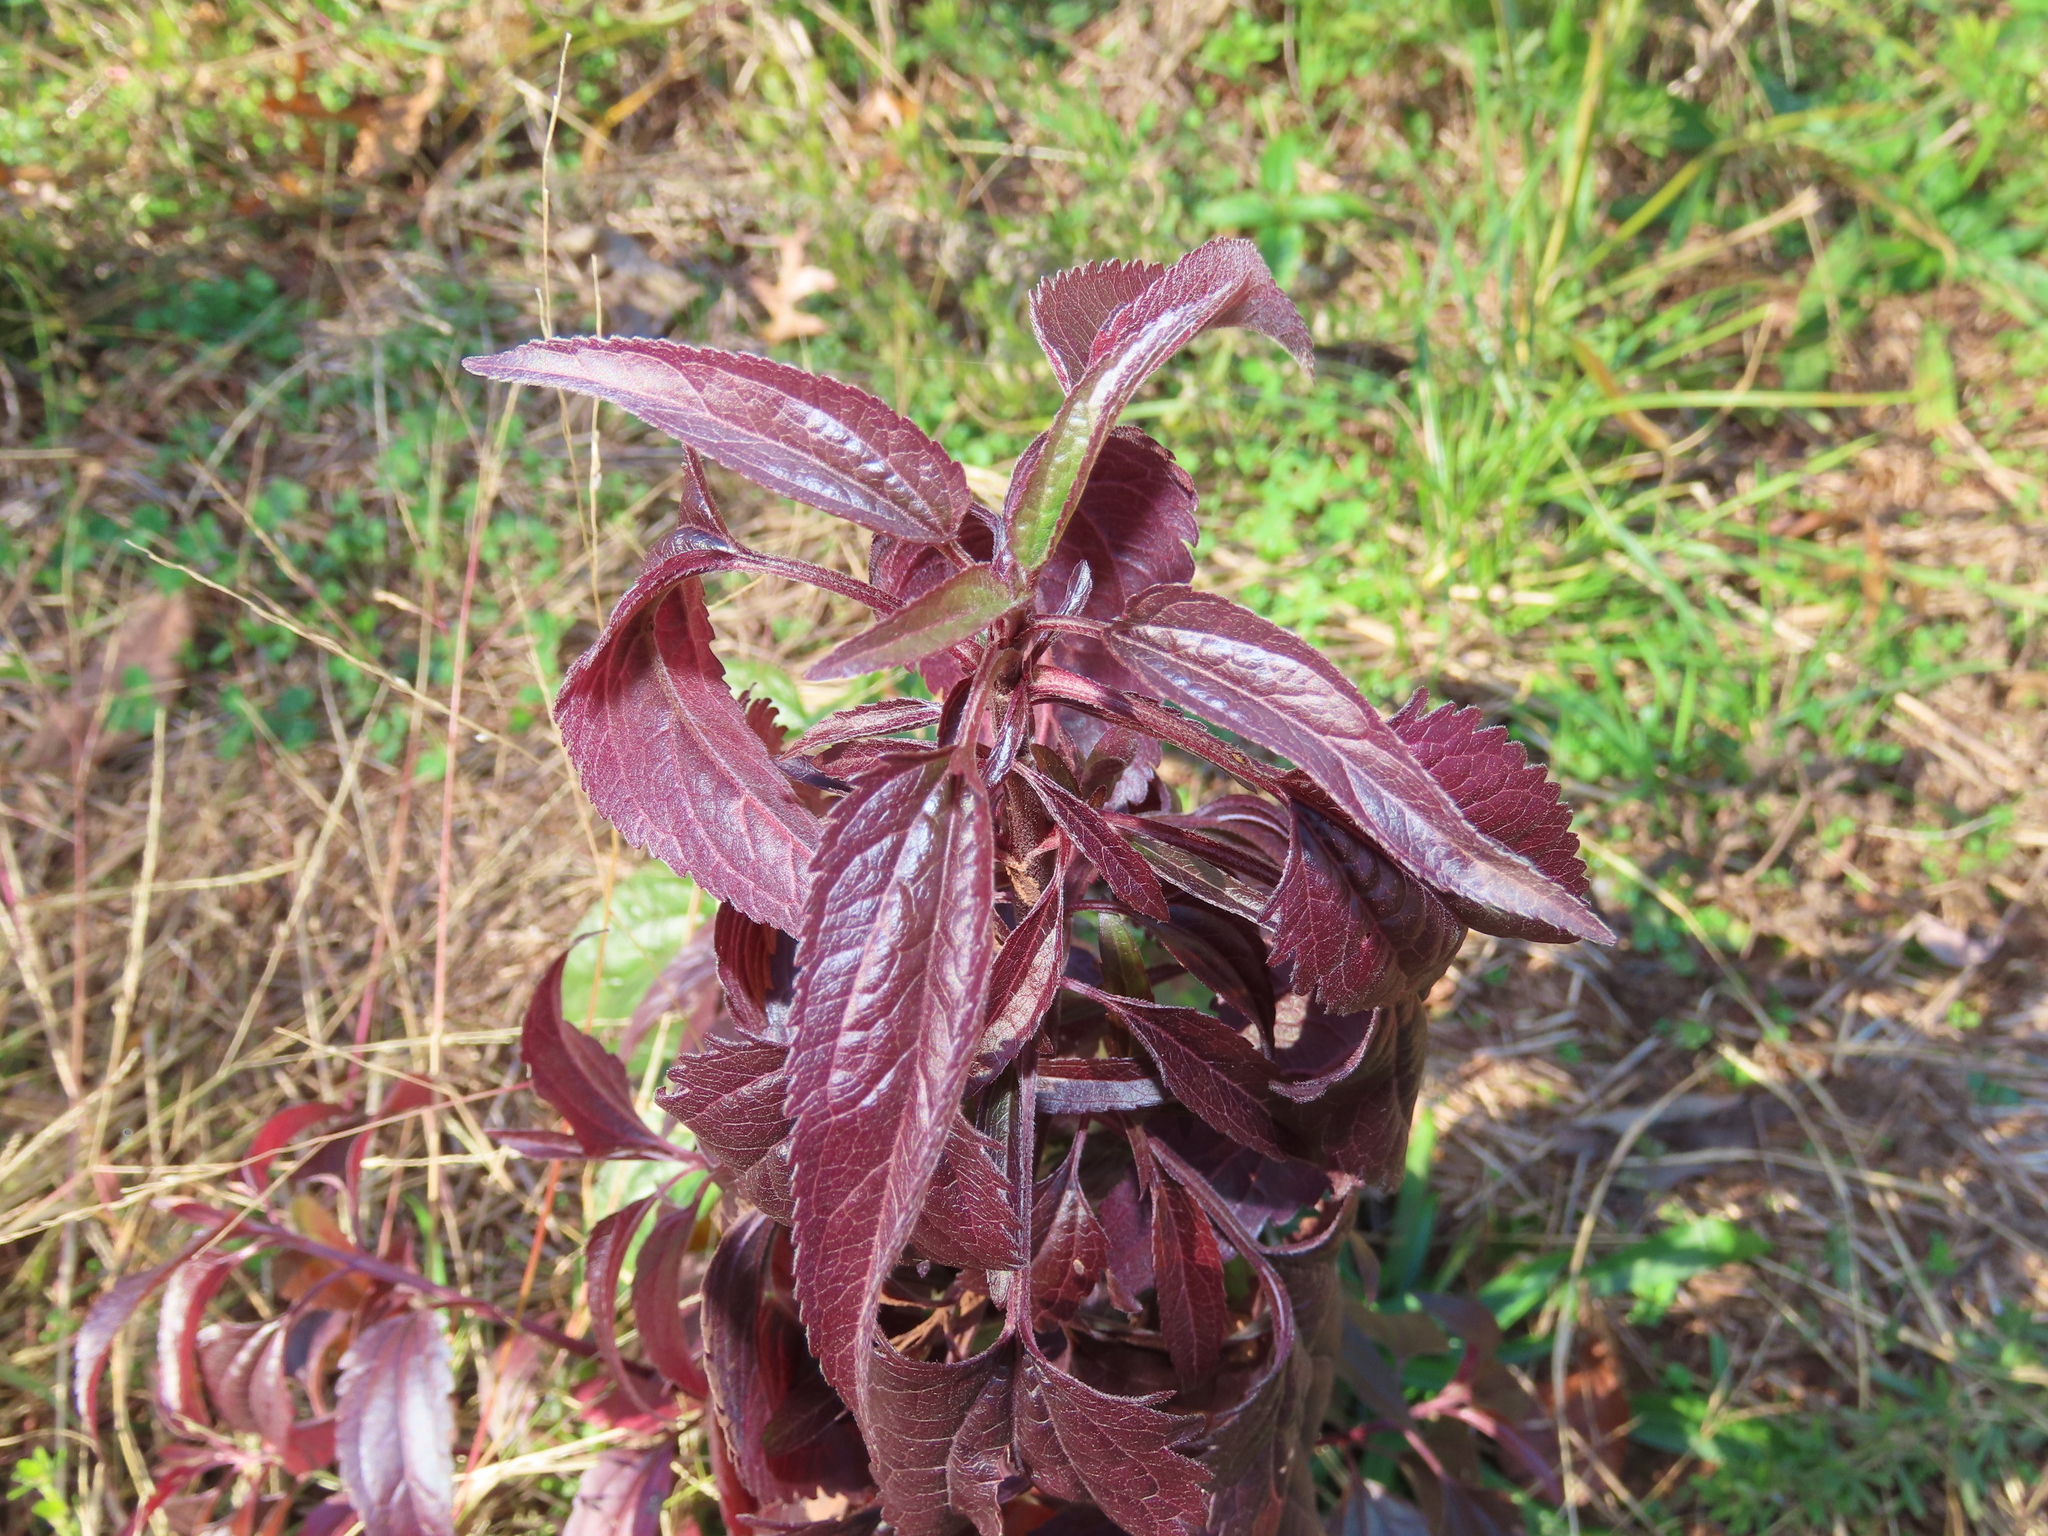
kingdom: Plantae
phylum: Tracheophyta
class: Magnoliopsida
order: Asterales
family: Asteraceae
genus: Eupatorium
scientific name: Eupatorium serotinum
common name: Late boneset
